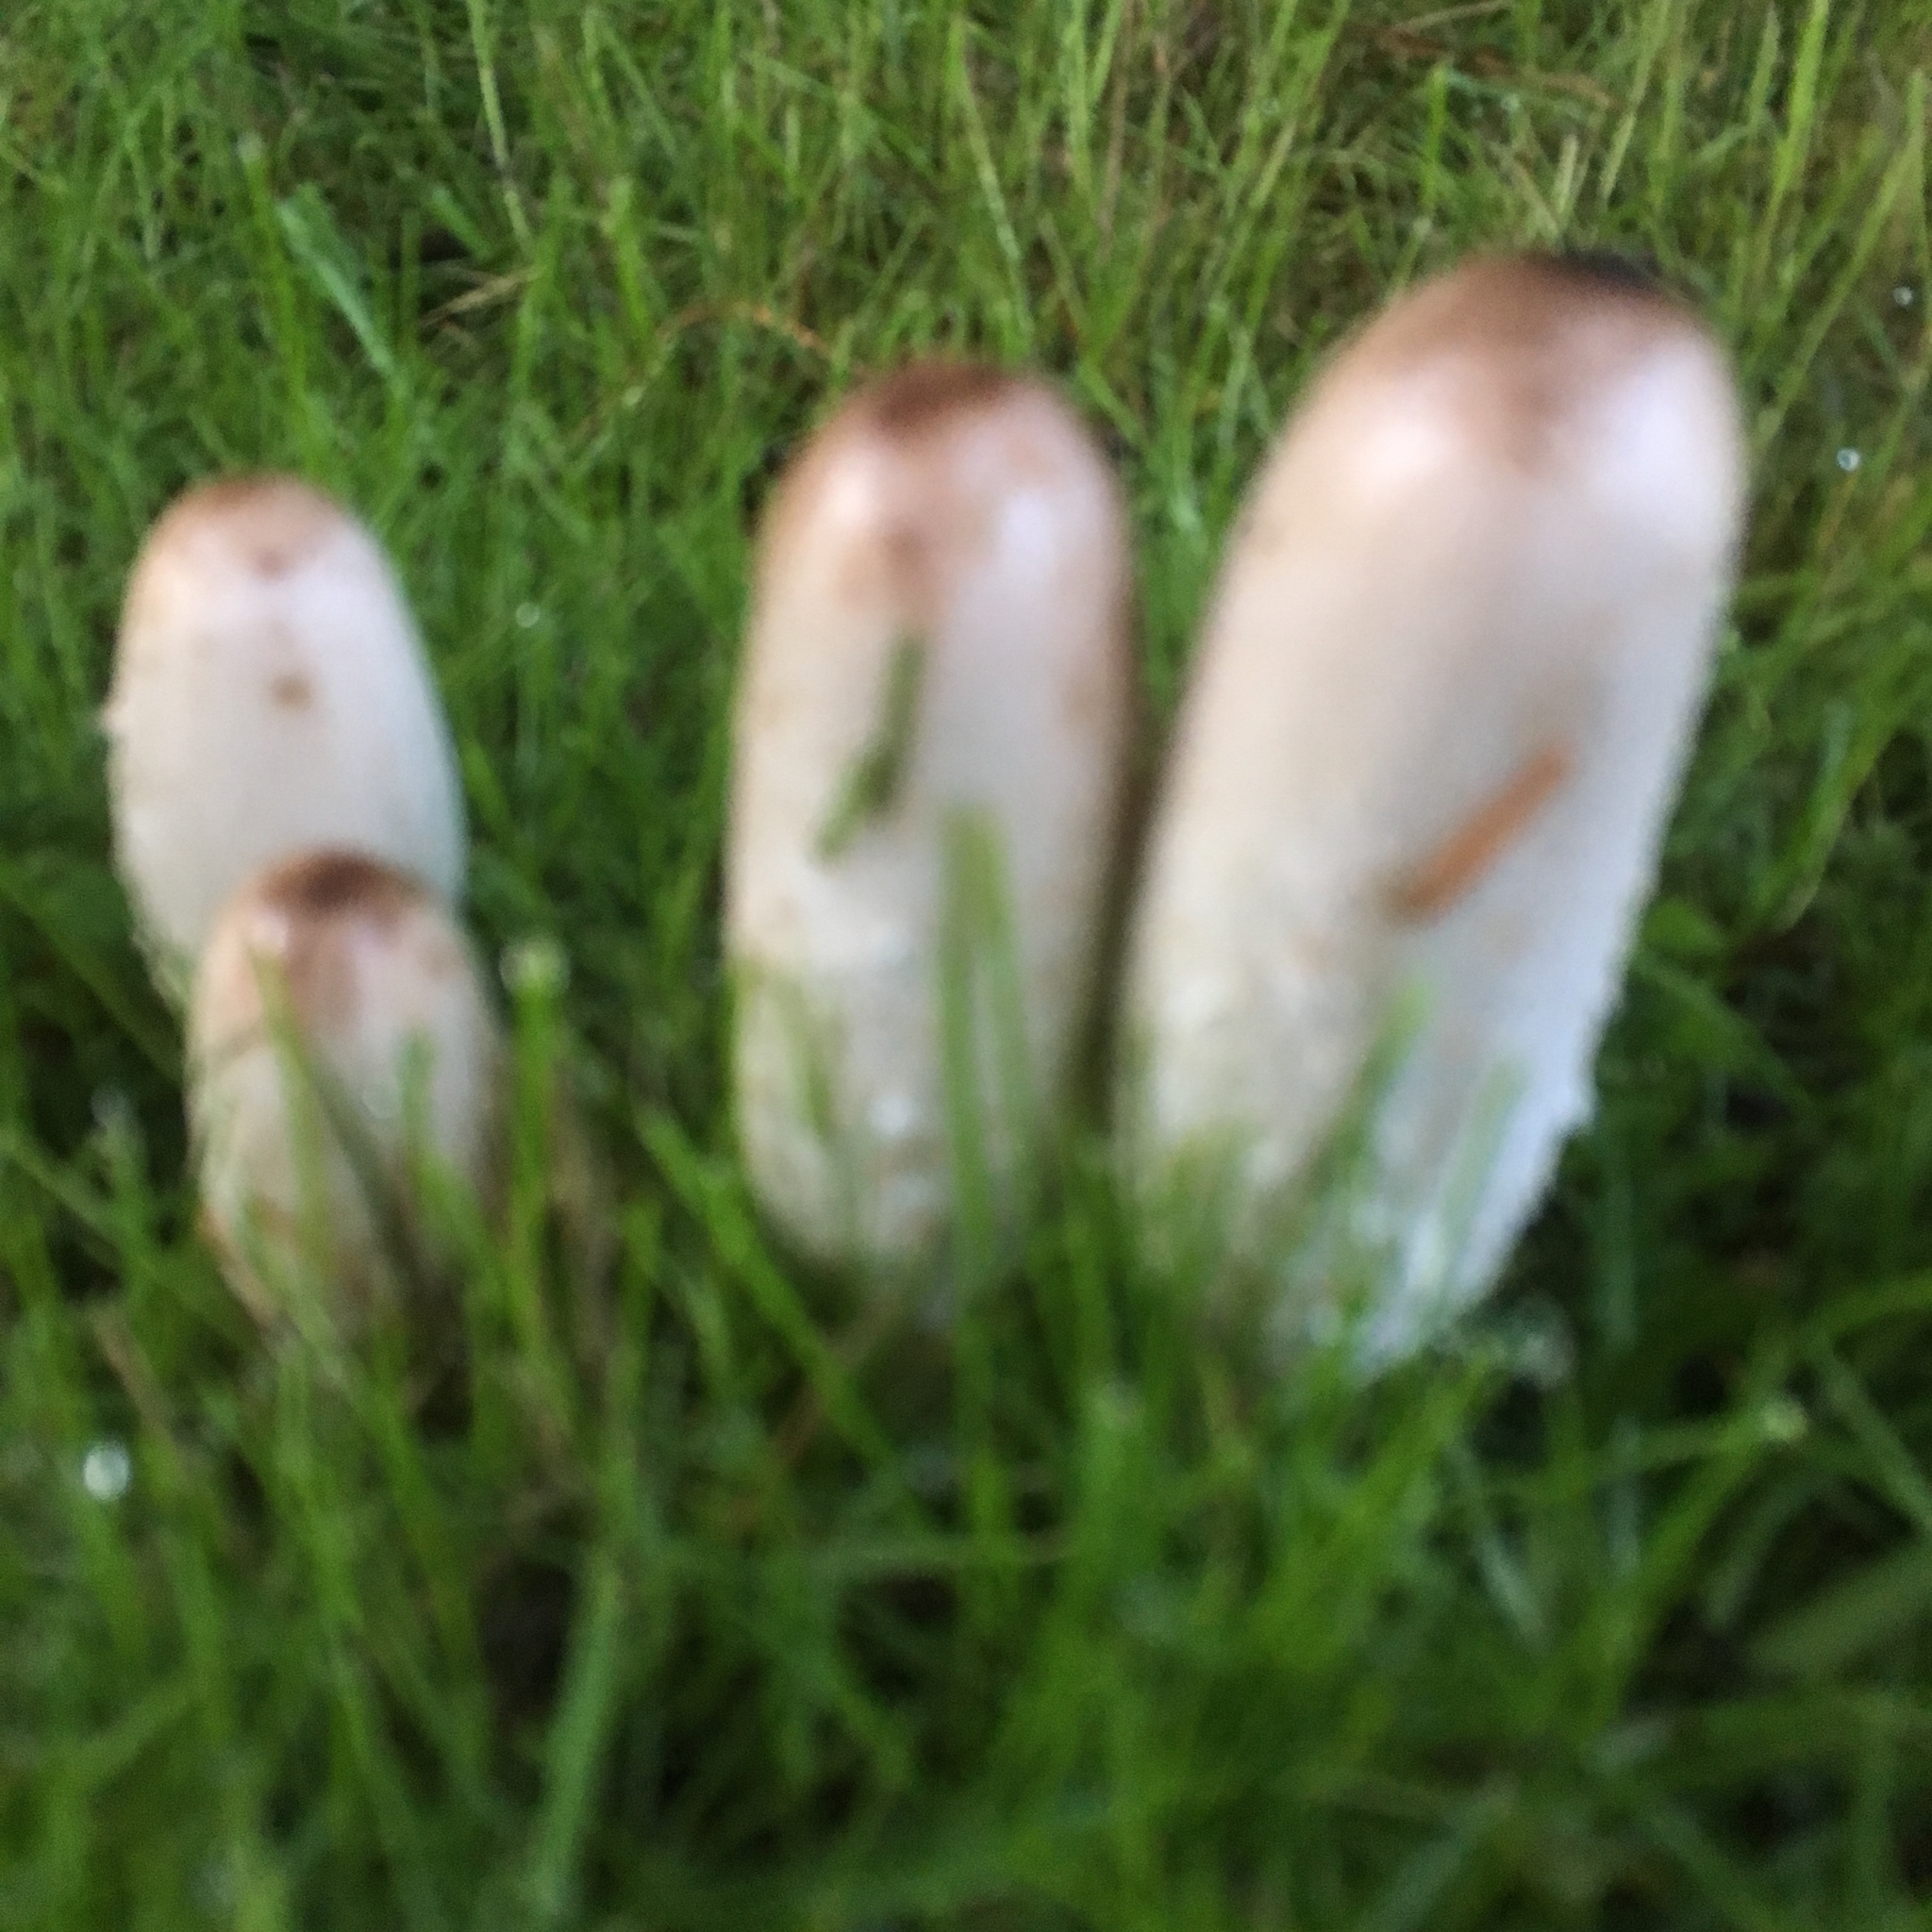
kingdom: Fungi
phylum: Basidiomycota
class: Agaricomycetes
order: Agaricales
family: Agaricaceae
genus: Coprinus
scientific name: Coprinus comatus
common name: Lawyer's wig
